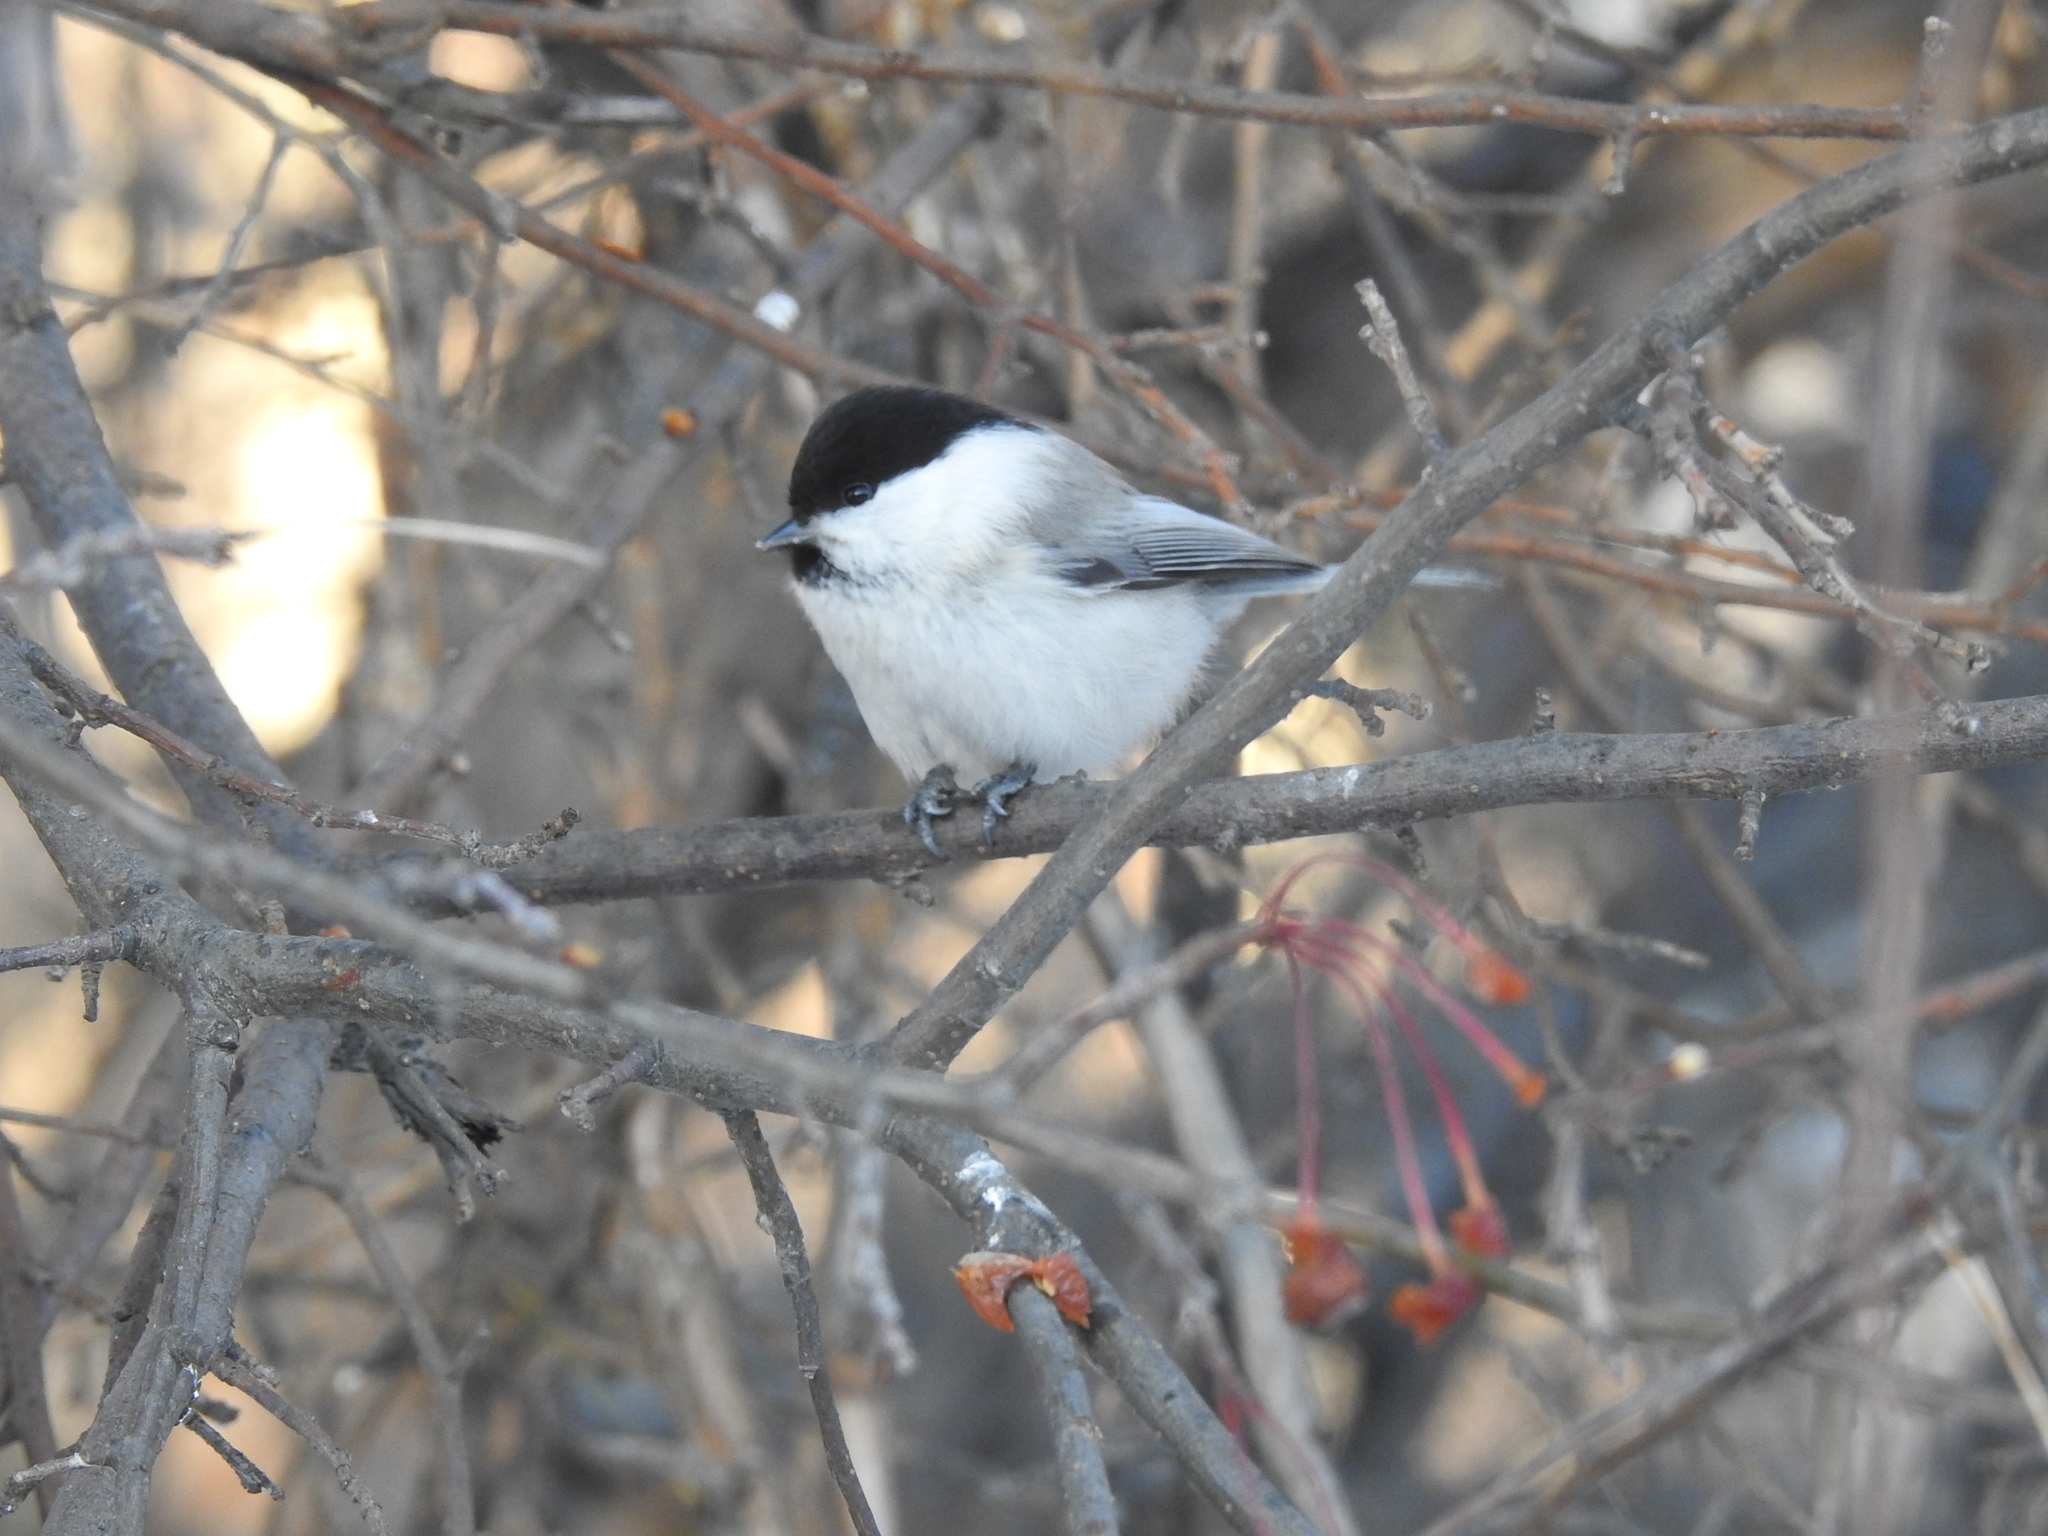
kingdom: Animalia
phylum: Chordata
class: Aves
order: Passeriformes
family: Paridae
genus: Poecile
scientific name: Poecile montanus
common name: Willow tit
